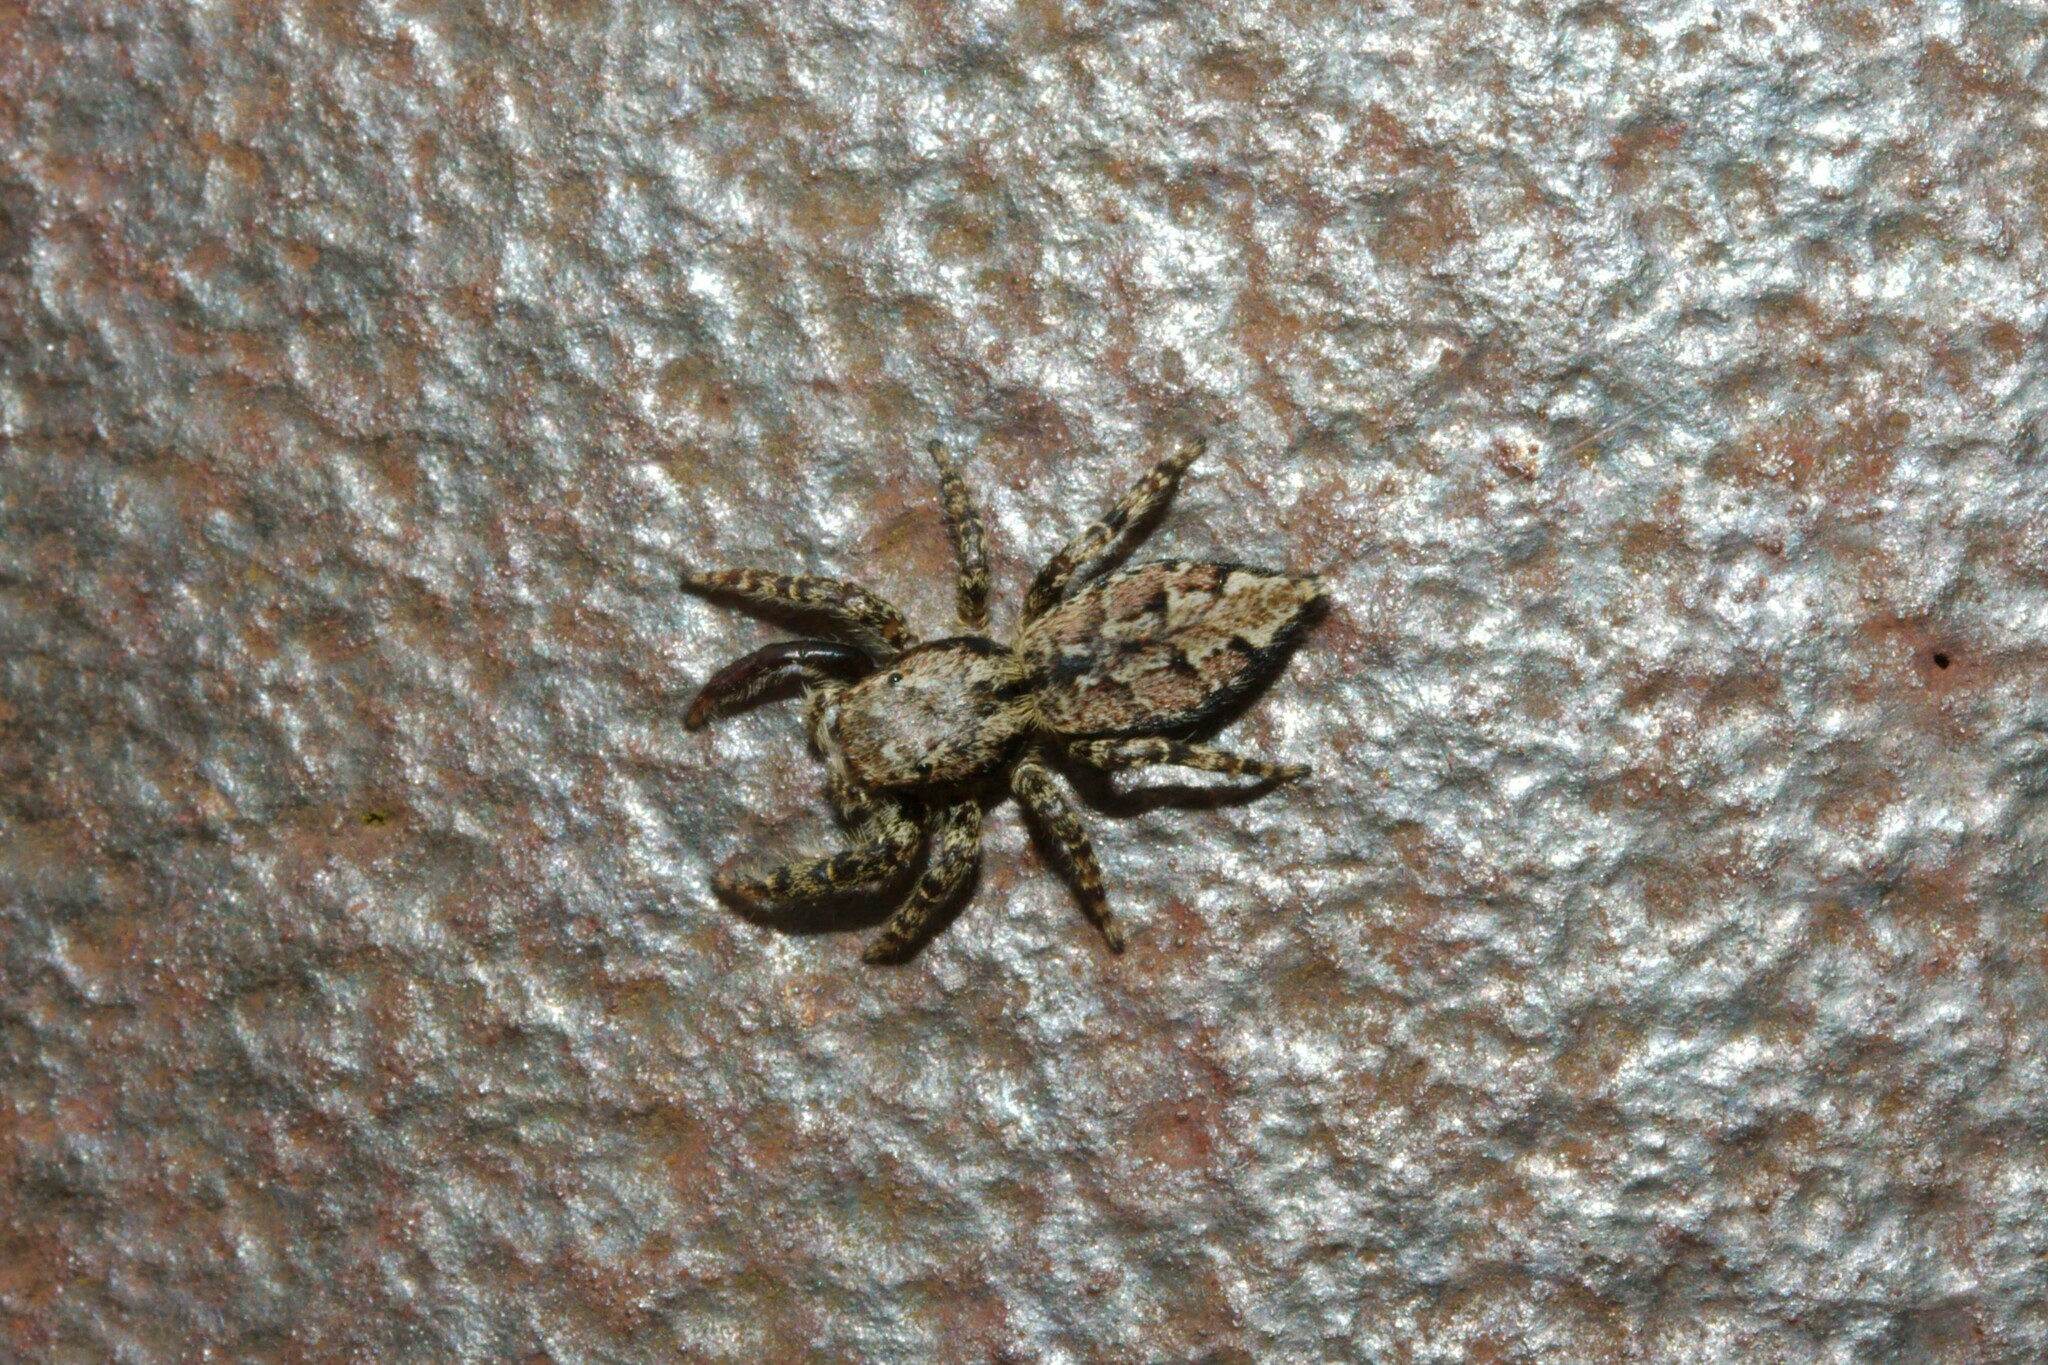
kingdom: Animalia
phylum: Arthropoda
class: Arachnida
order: Araneae
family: Salticidae
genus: Marpissa
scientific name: Marpissa muscosa
